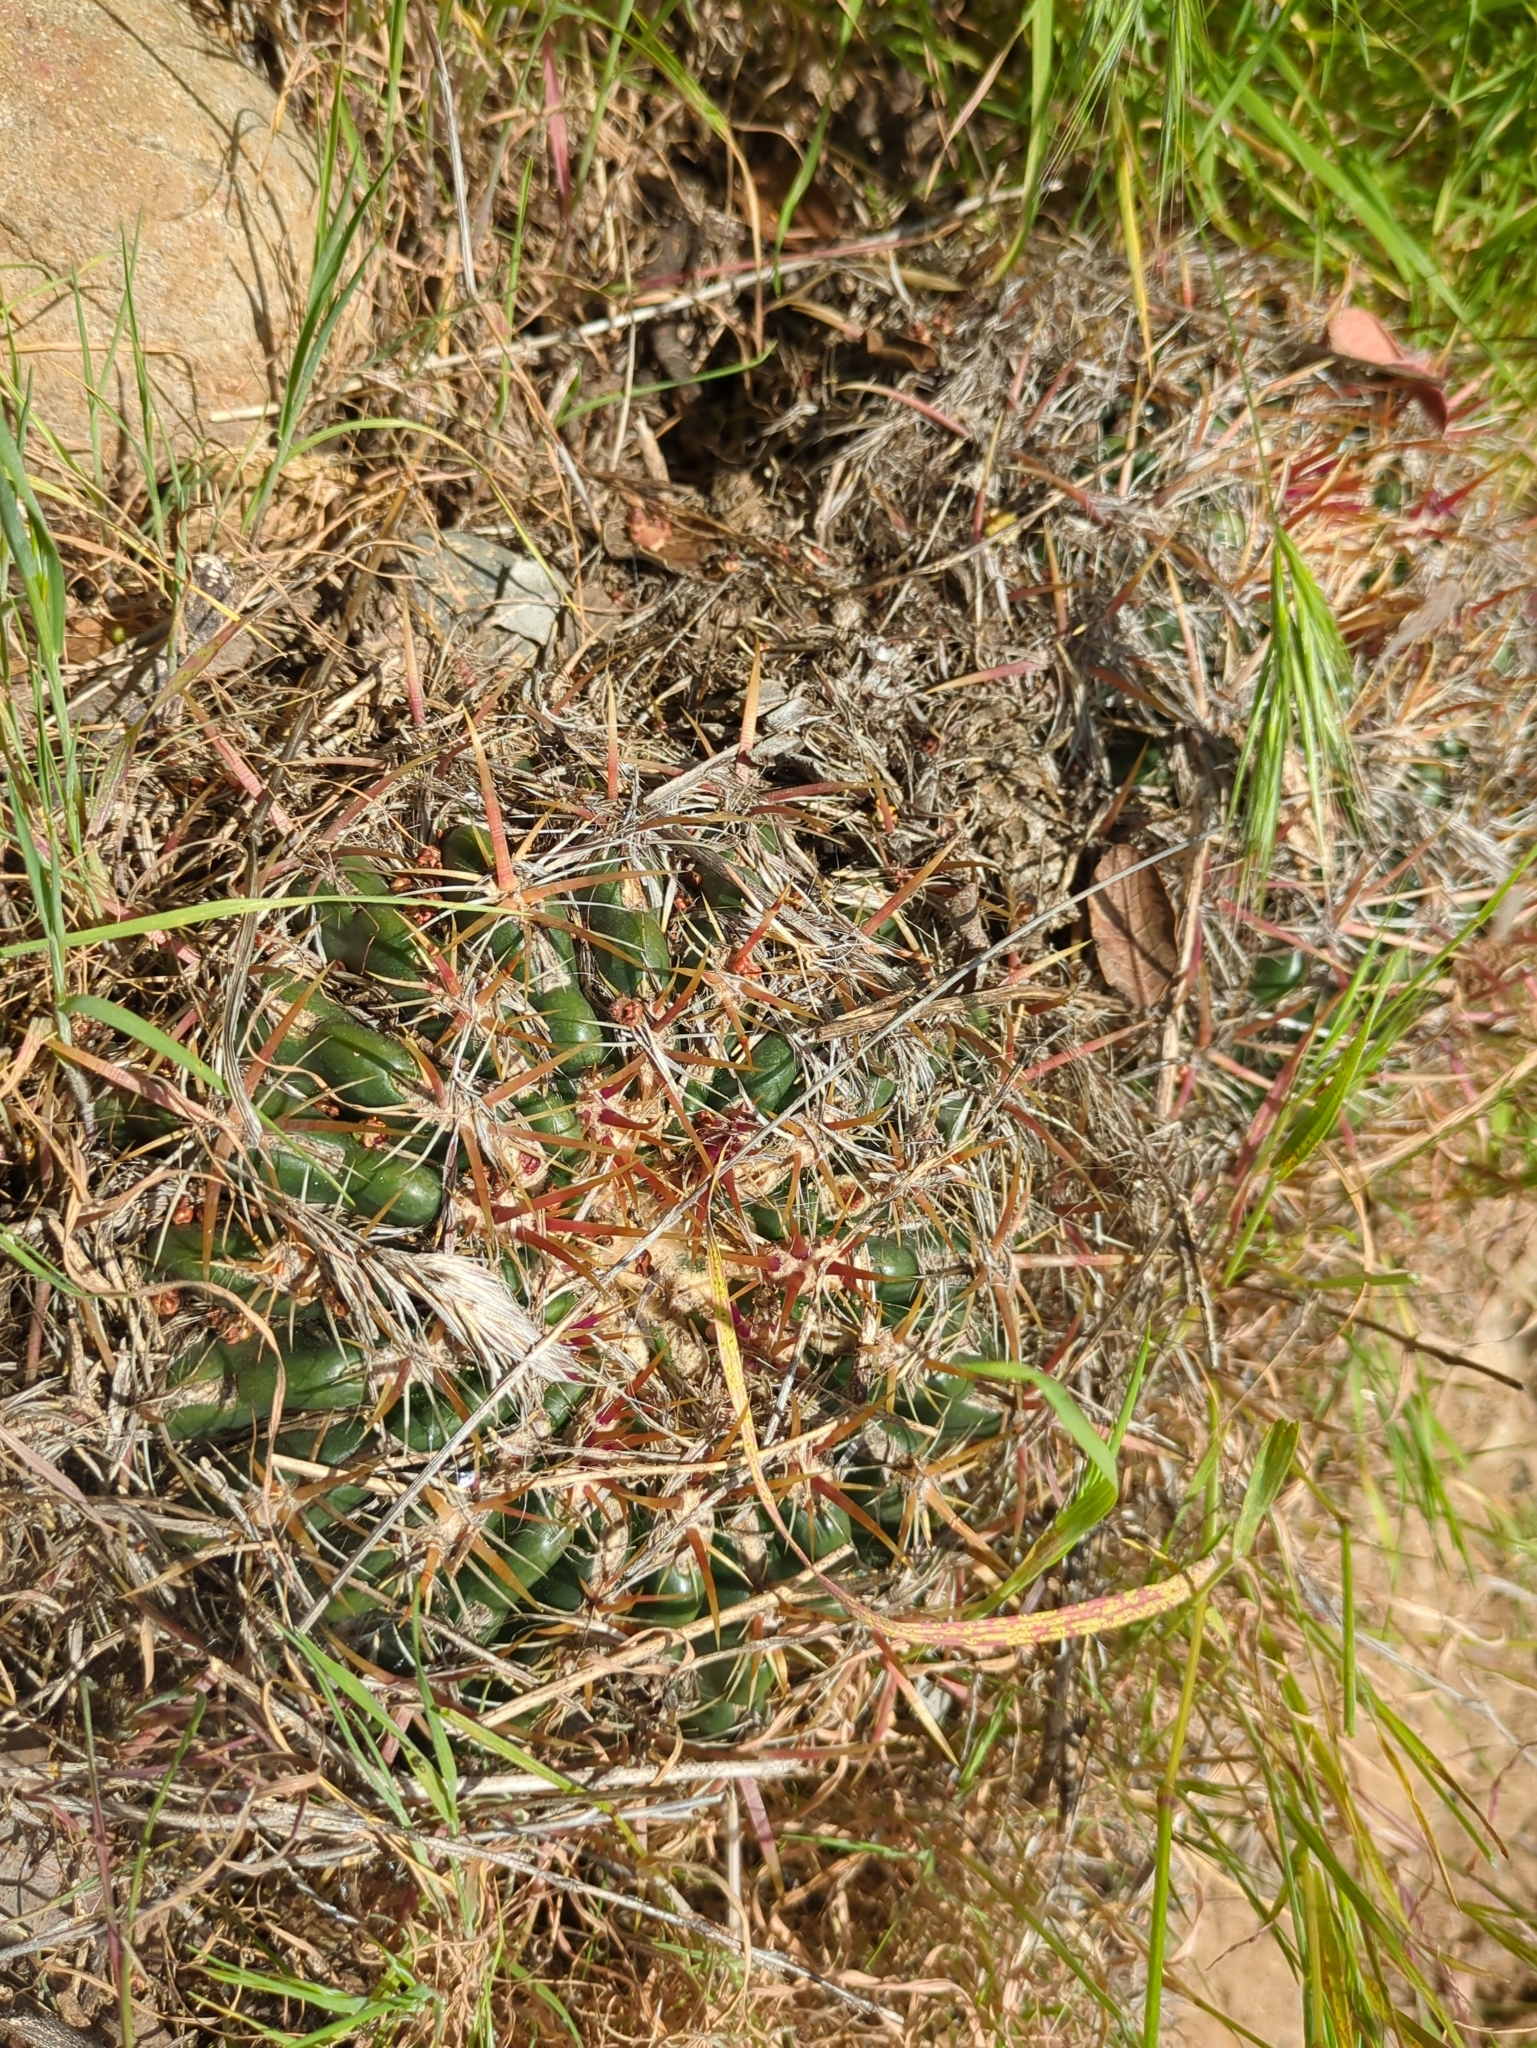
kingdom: Plantae
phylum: Tracheophyta
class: Magnoliopsida
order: Caryophyllales
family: Cactaceae
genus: Ferocactus
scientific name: Ferocactus viridescens
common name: San diego barrel cactus
